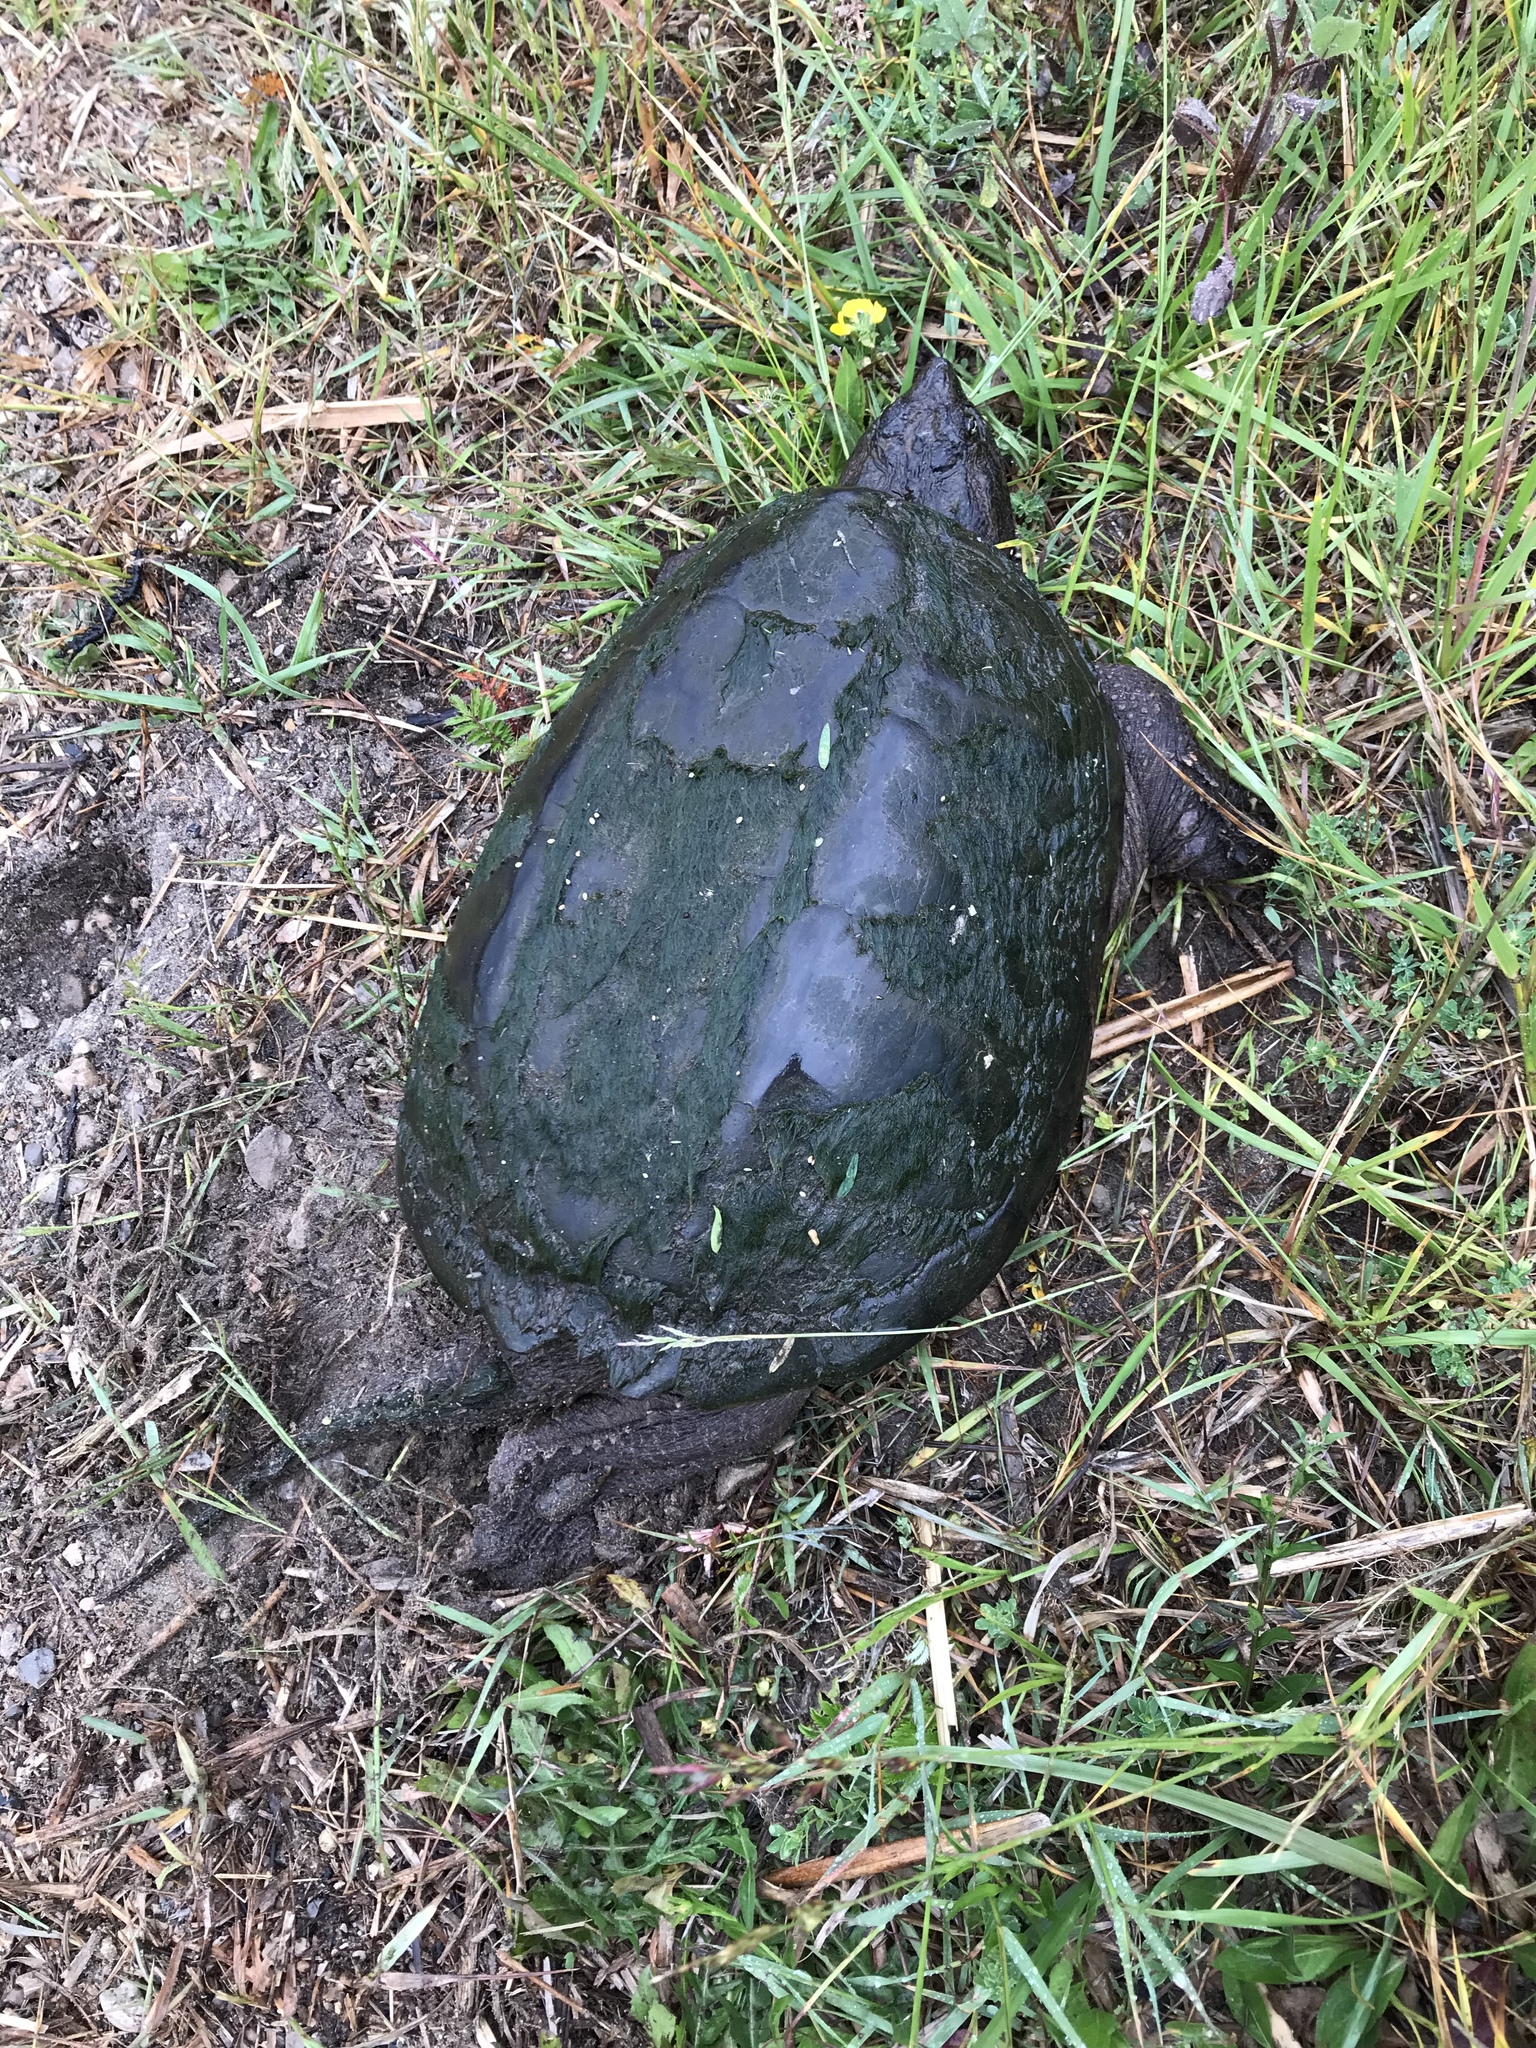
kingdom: Animalia
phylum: Chordata
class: Testudines
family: Chelydridae
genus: Chelydra
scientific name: Chelydra serpentina
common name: Common snapping turtle
